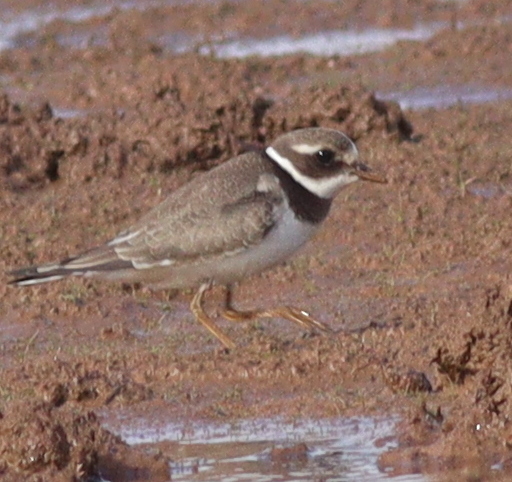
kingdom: Animalia
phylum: Chordata
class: Aves
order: Charadriiformes
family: Charadriidae
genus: Charadrius
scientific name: Charadrius hiaticula
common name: Common ringed plover
